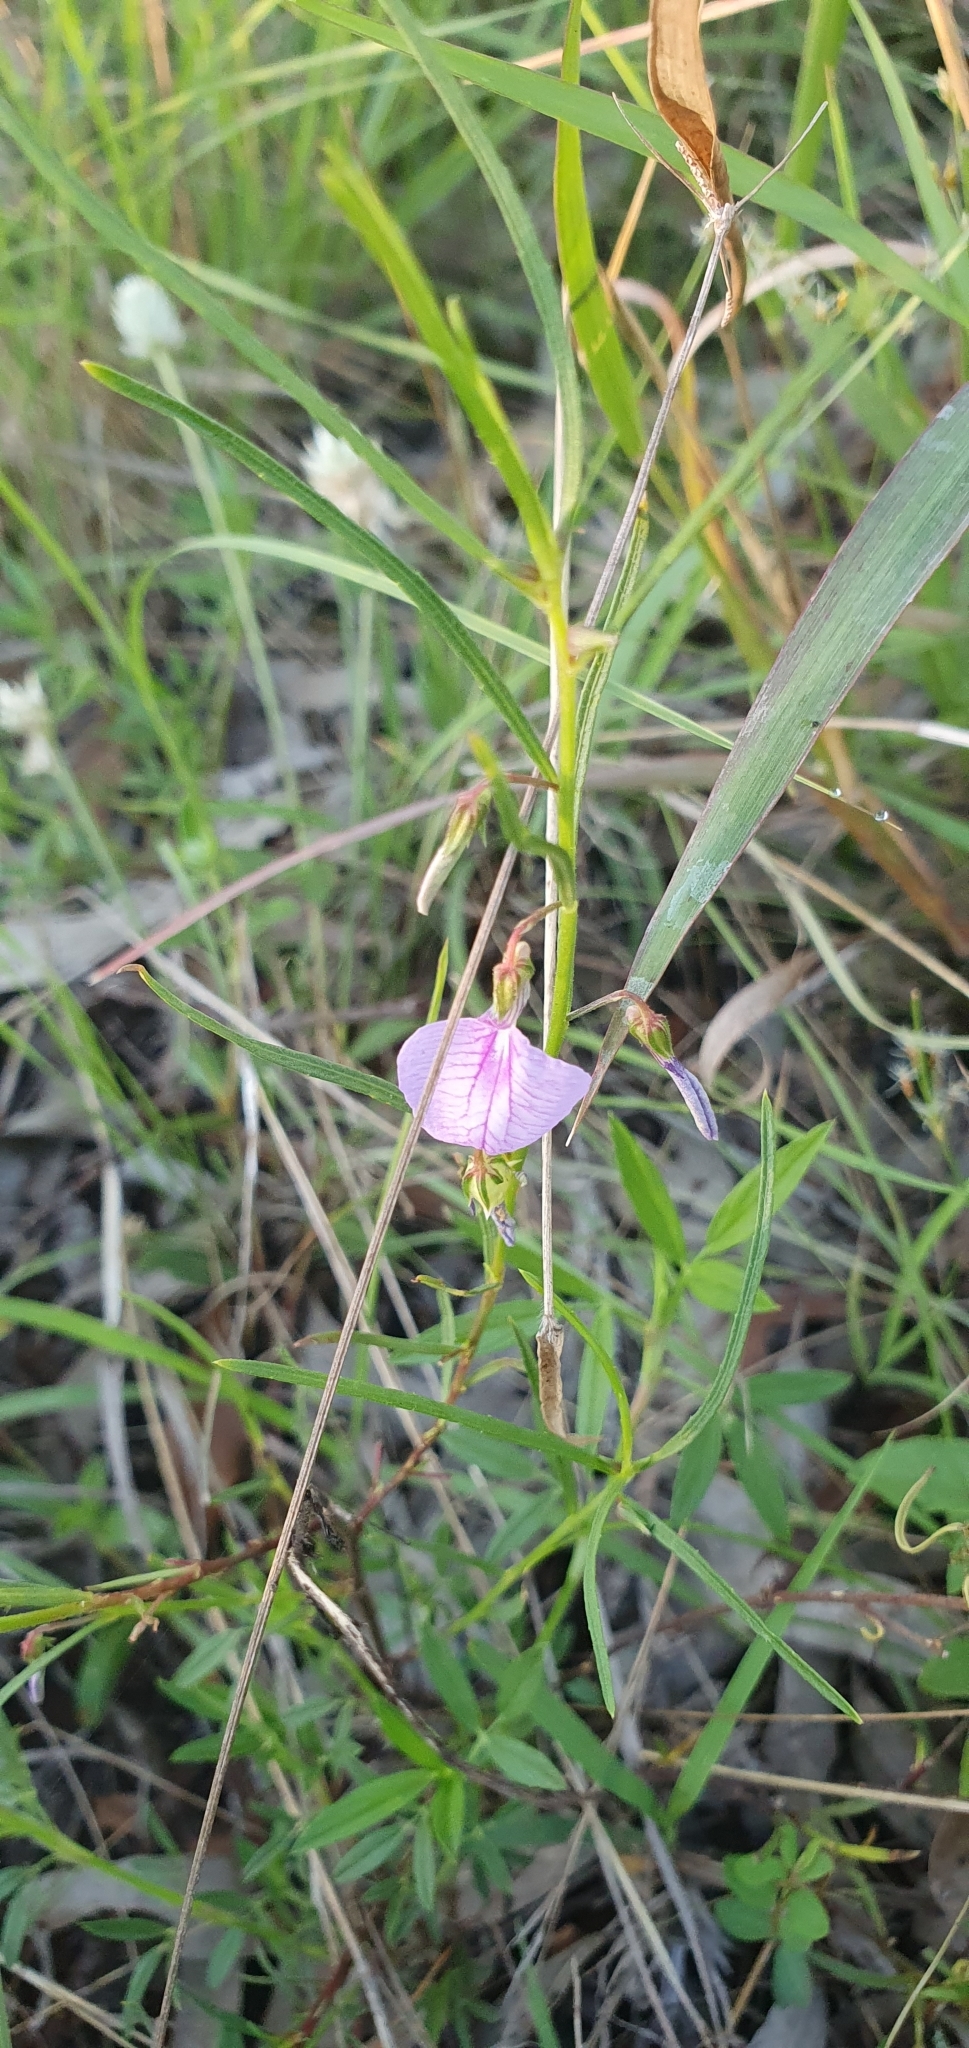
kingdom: Plantae
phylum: Tracheophyta
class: Magnoliopsida
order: Malpighiales
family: Violaceae
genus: Pigea
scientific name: Pigea enneasperma
